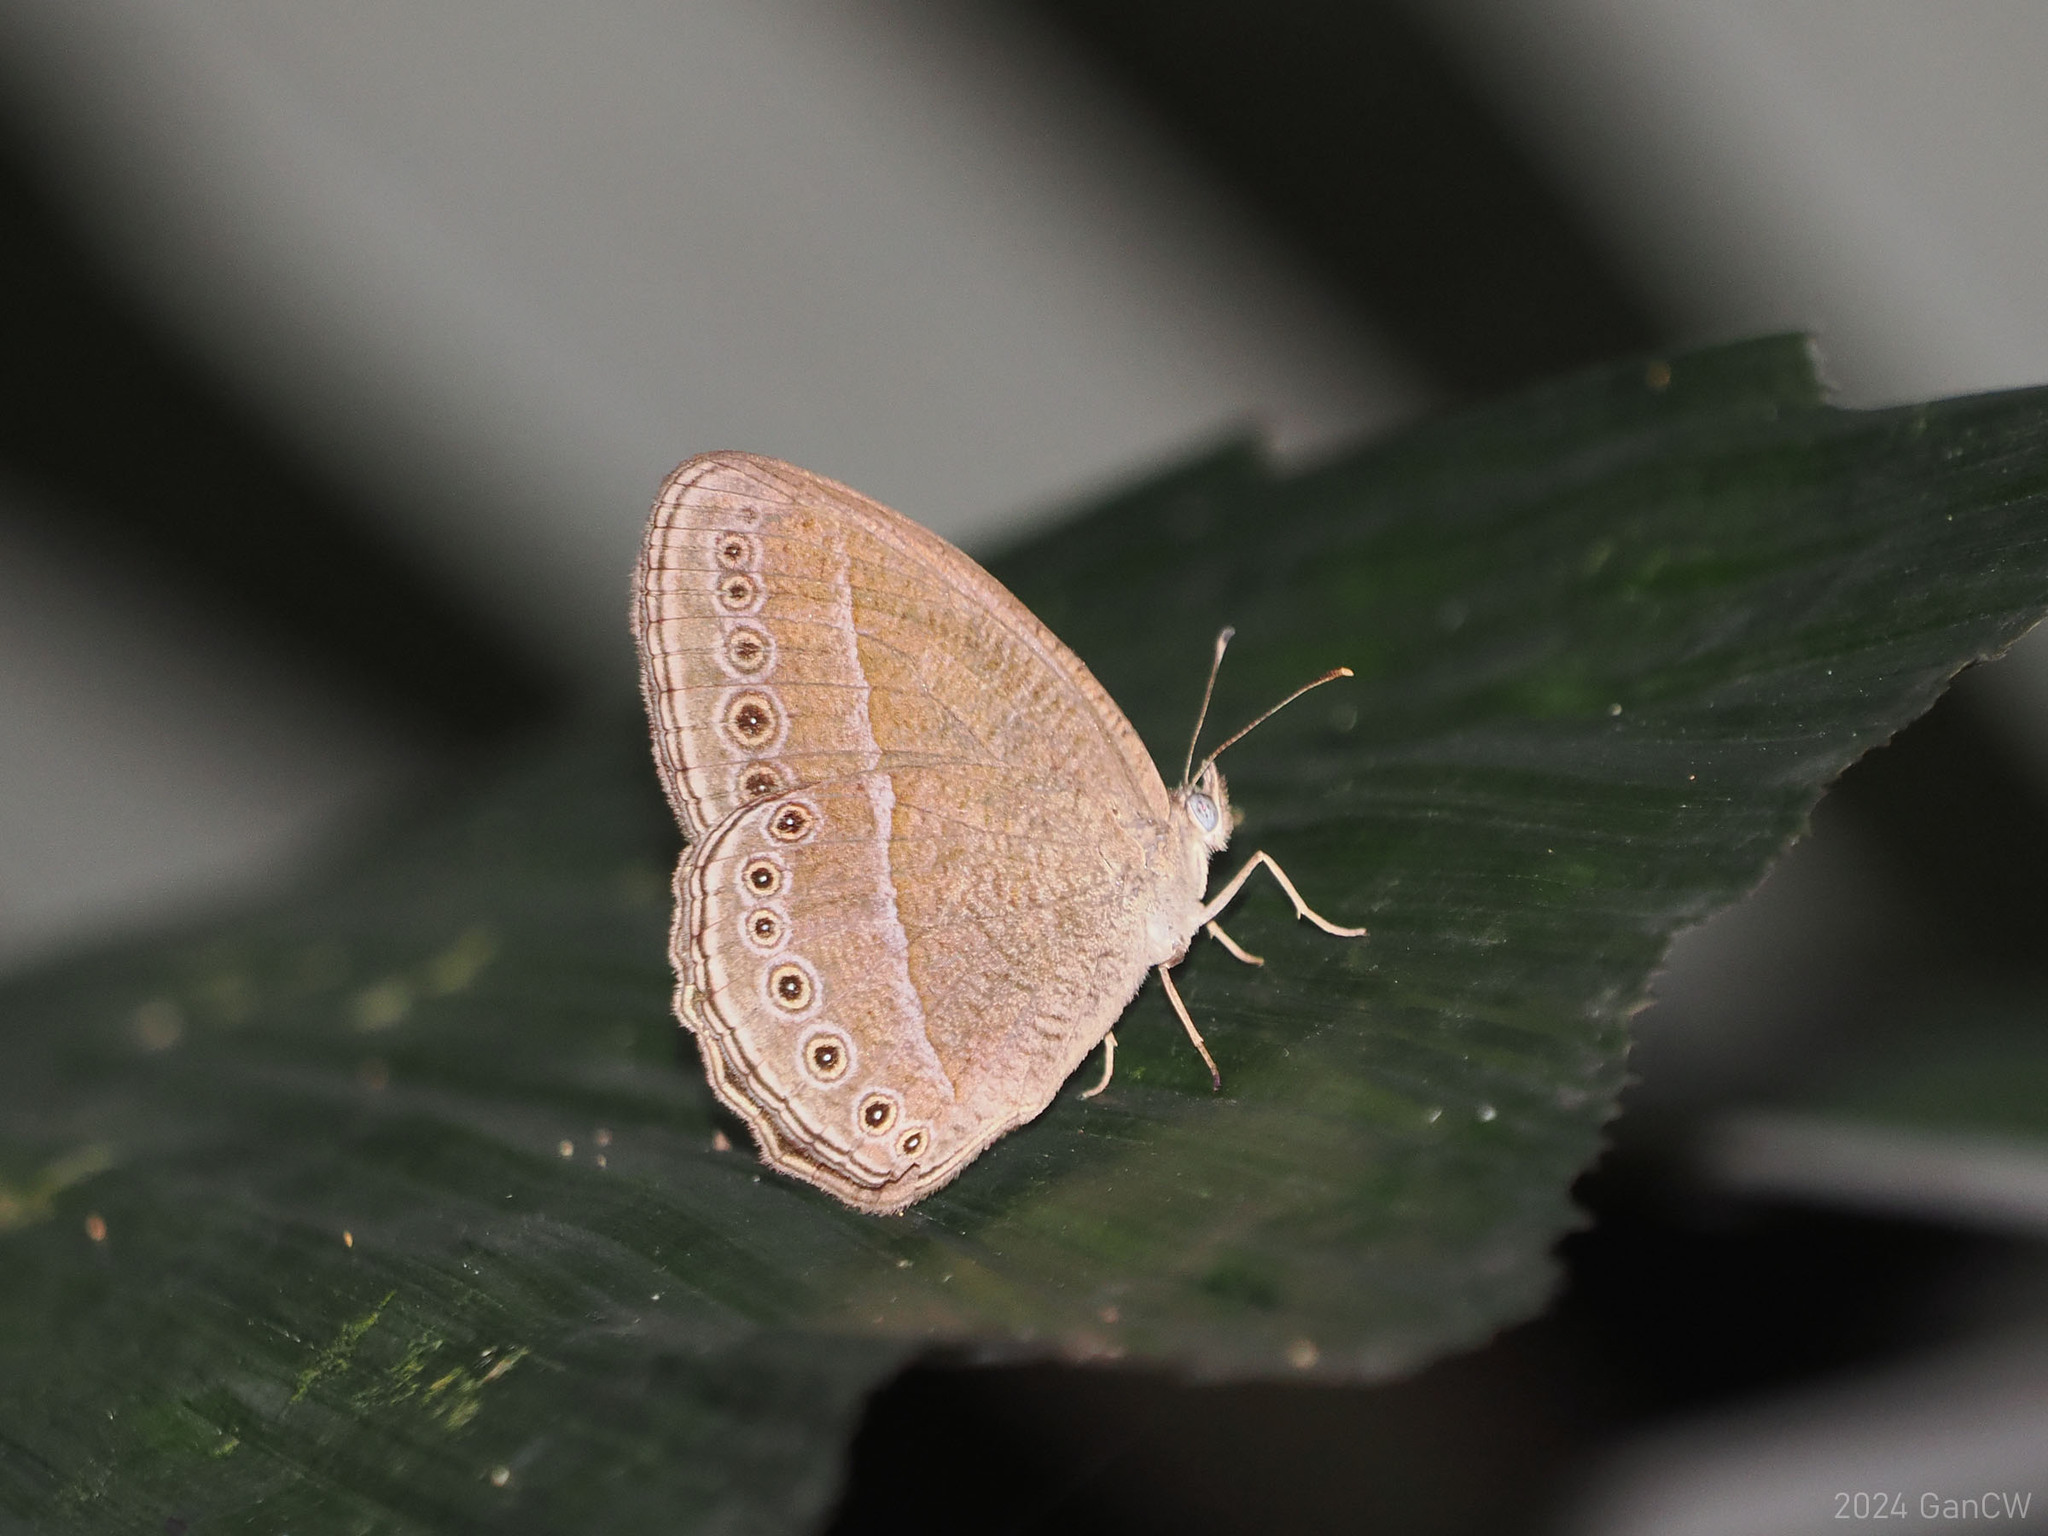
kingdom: Animalia
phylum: Arthropoda
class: Insecta
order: Lepidoptera
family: Nymphalidae
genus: Mycalesis
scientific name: Mycalesis Telinga janardana
